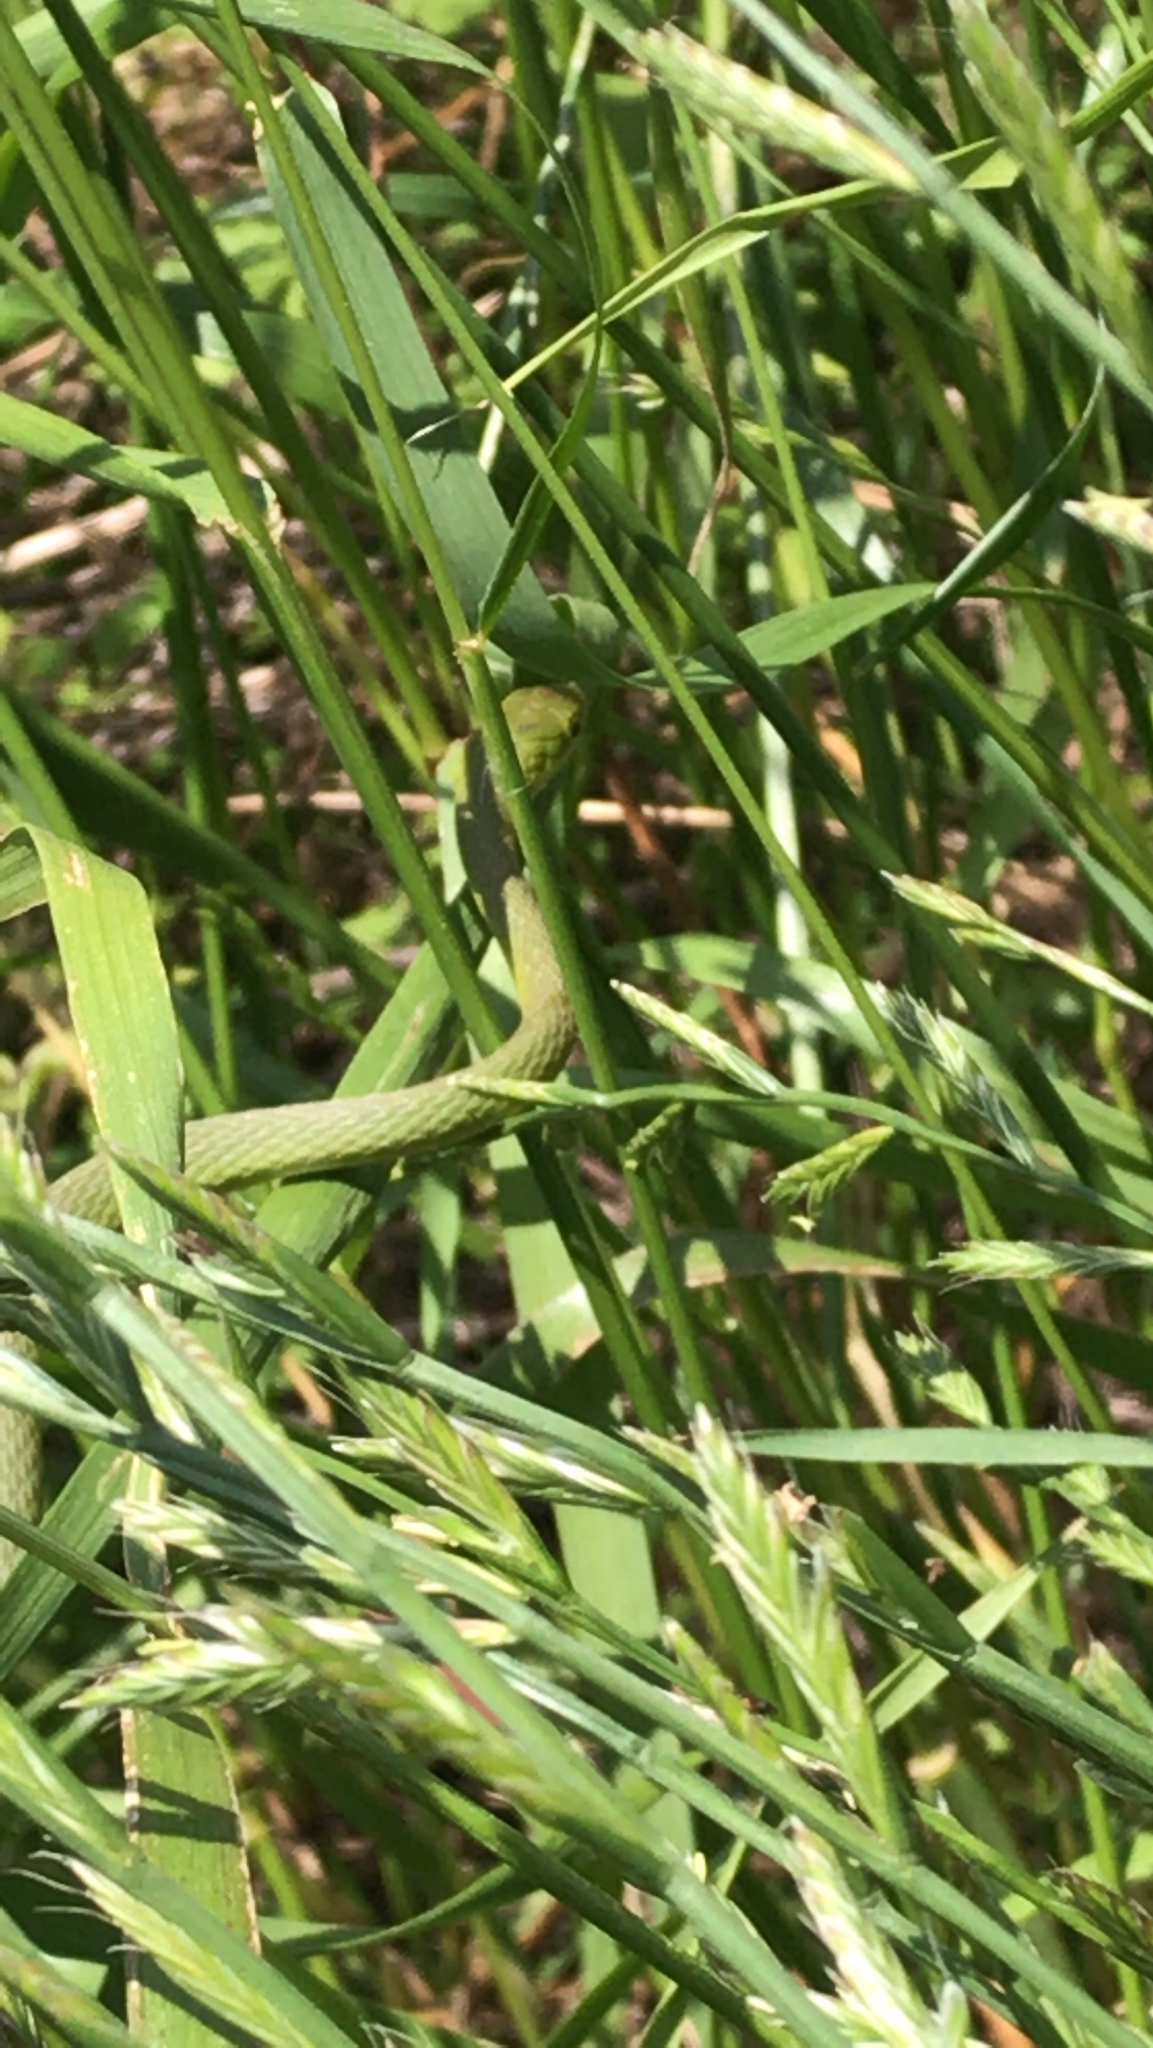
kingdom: Animalia
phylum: Chordata
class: Squamata
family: Colubridae
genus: Opheodrys
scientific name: Opheodrys aestivus
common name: Rough greensnake
